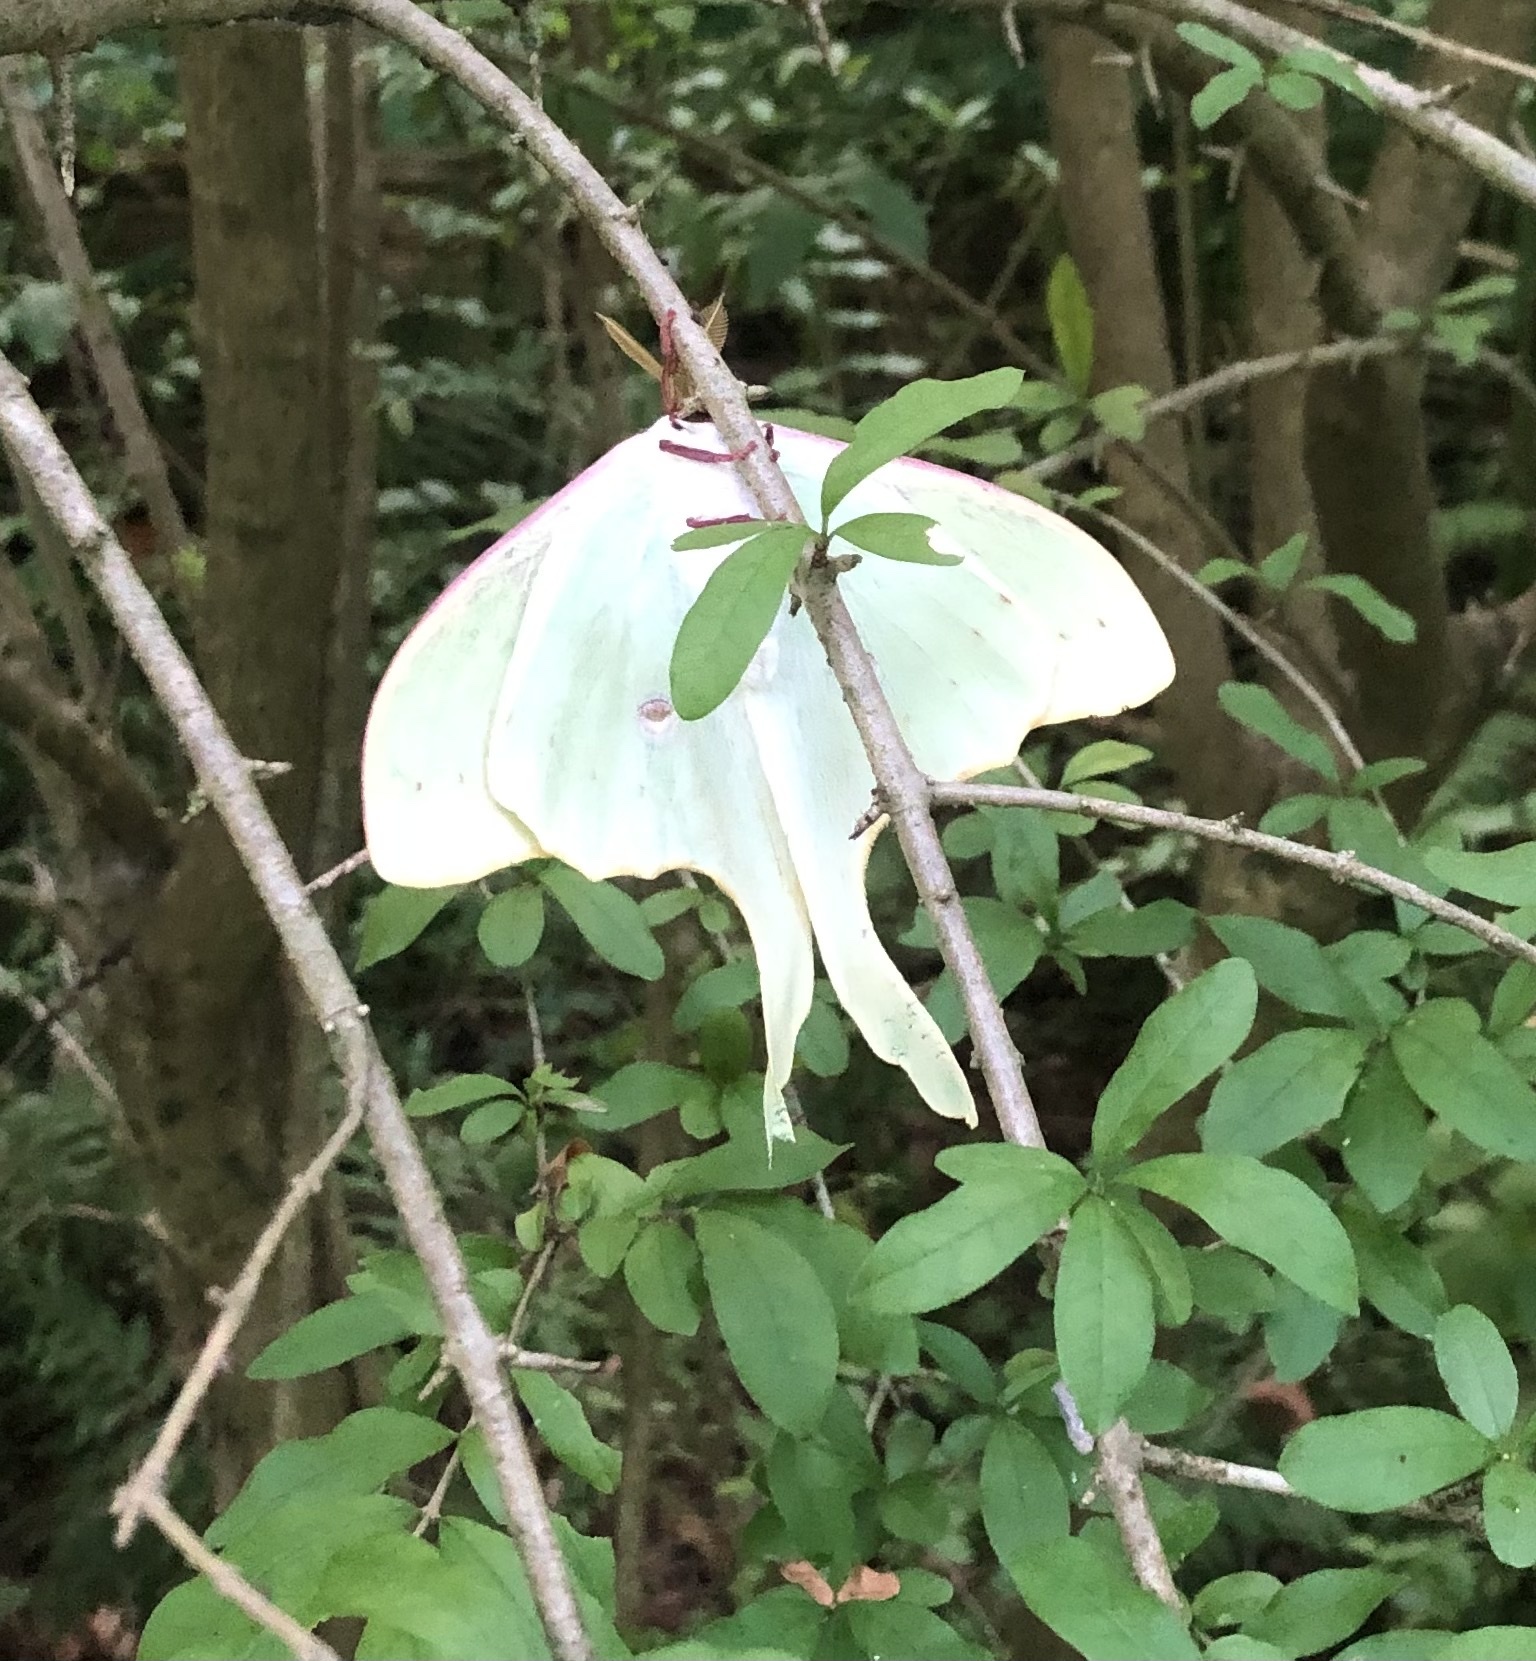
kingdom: Animalia
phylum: Arthropoda
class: Insecta
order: Lepidoptera
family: Saturniidae
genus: Actias
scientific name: Actias luna
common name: Luna moth
